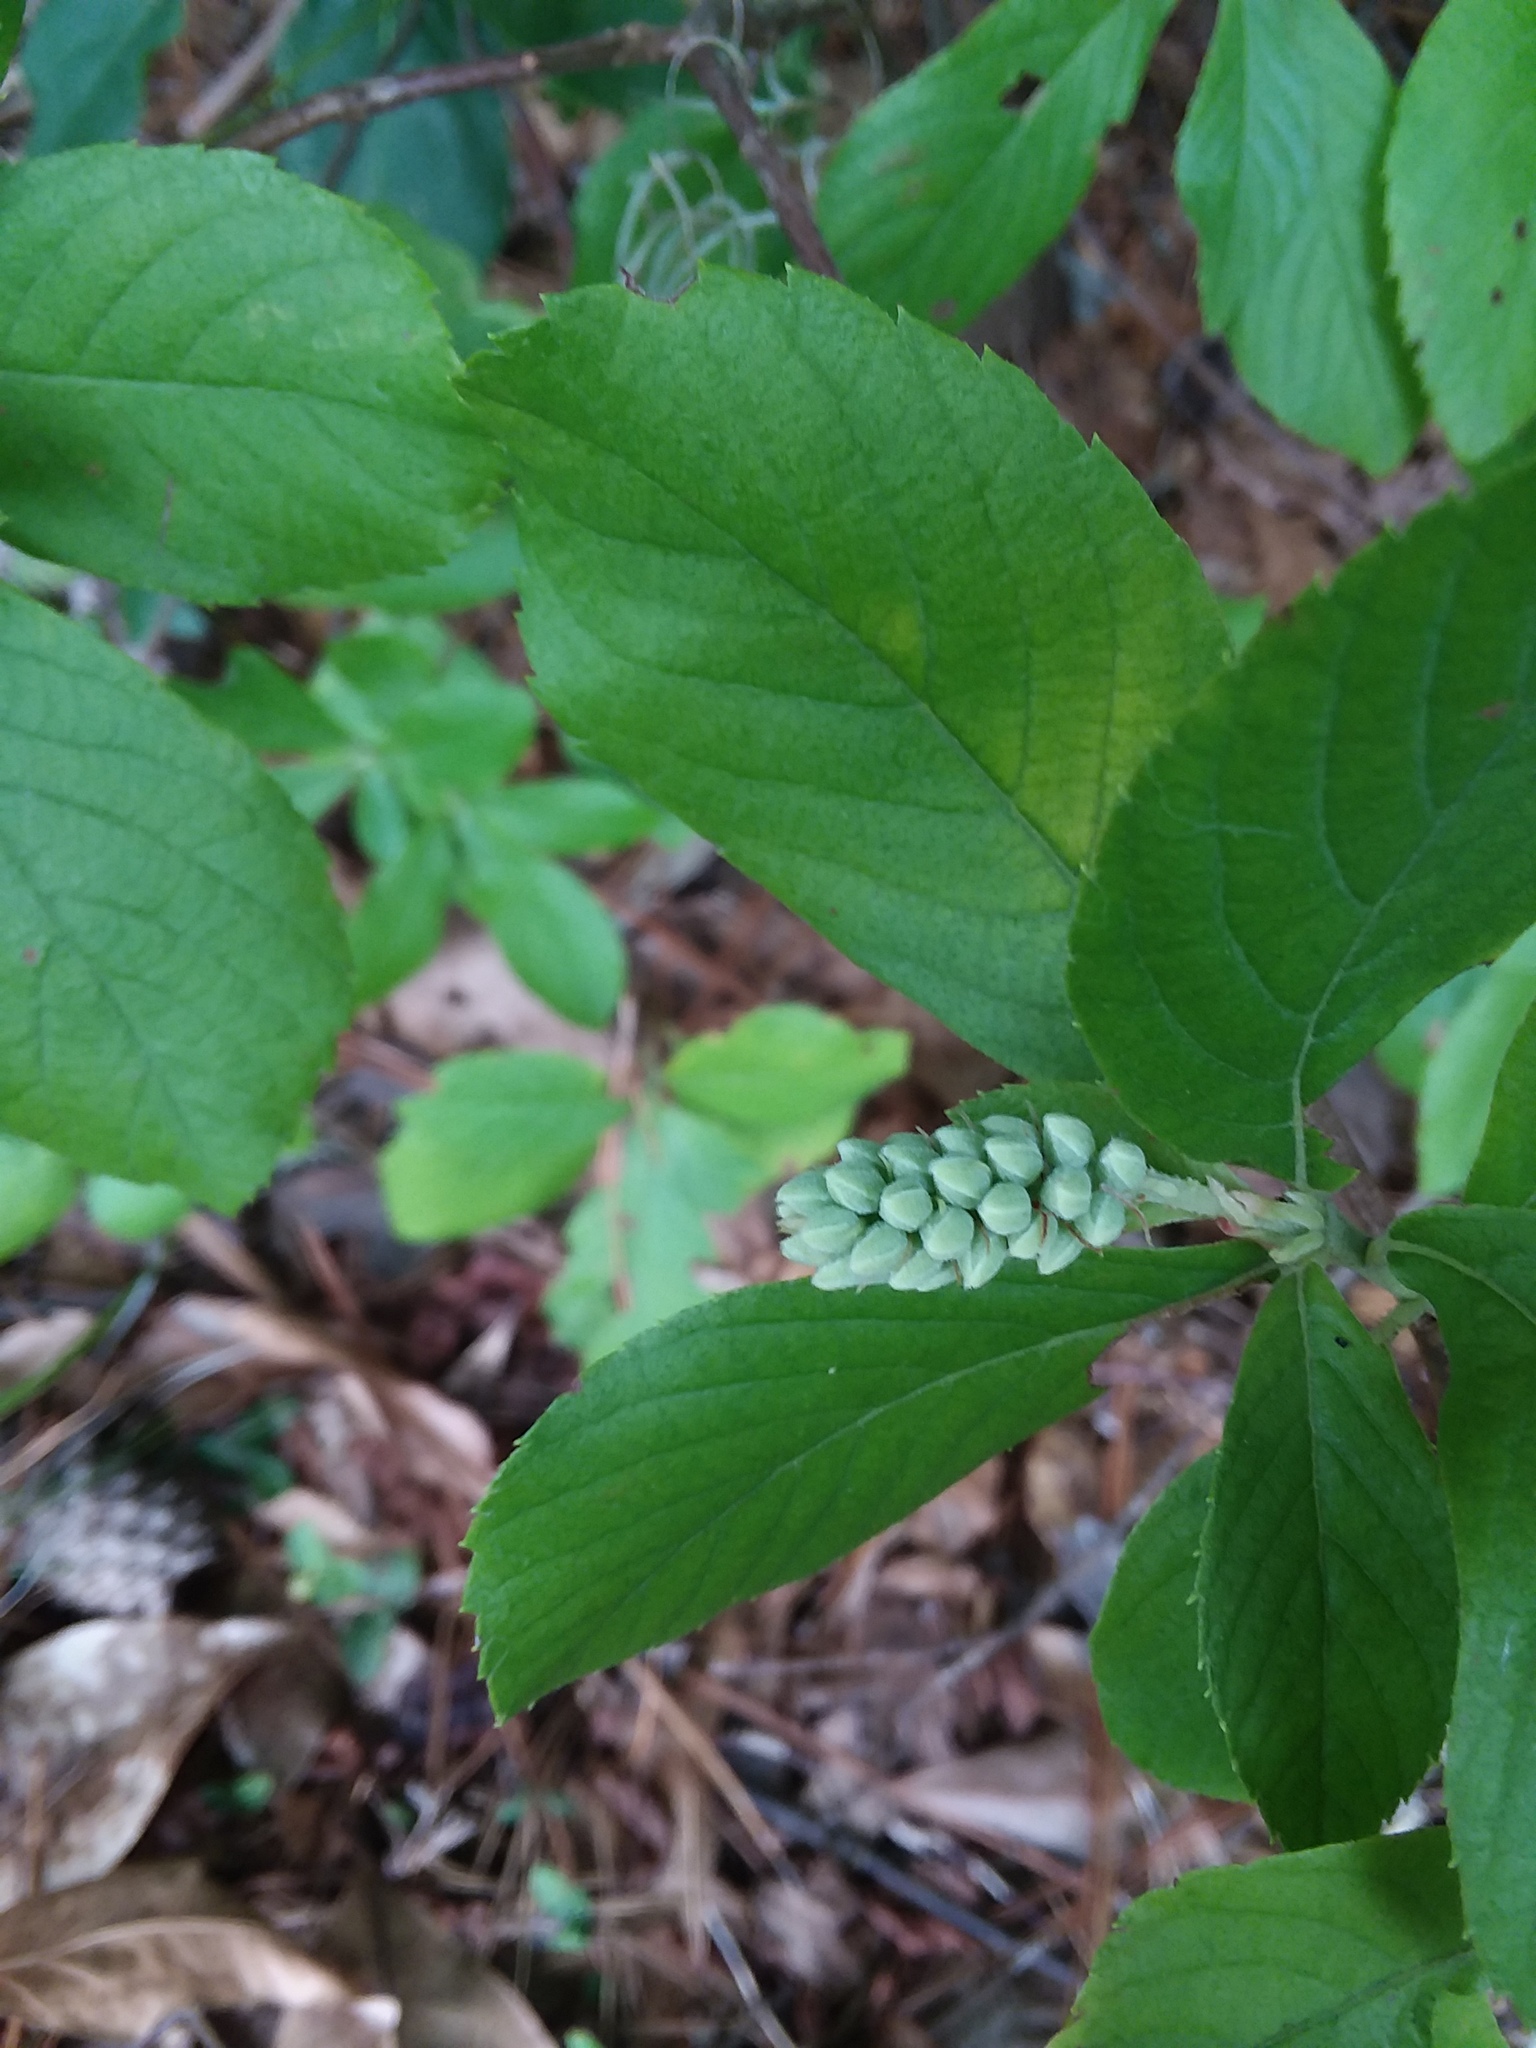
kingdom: Plantae
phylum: Tracheophyta
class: Magnoliopsida
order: Ericales
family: Clethraceae
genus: Clethra
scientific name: Clethra alnifolia
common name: Sweet pepperbush
